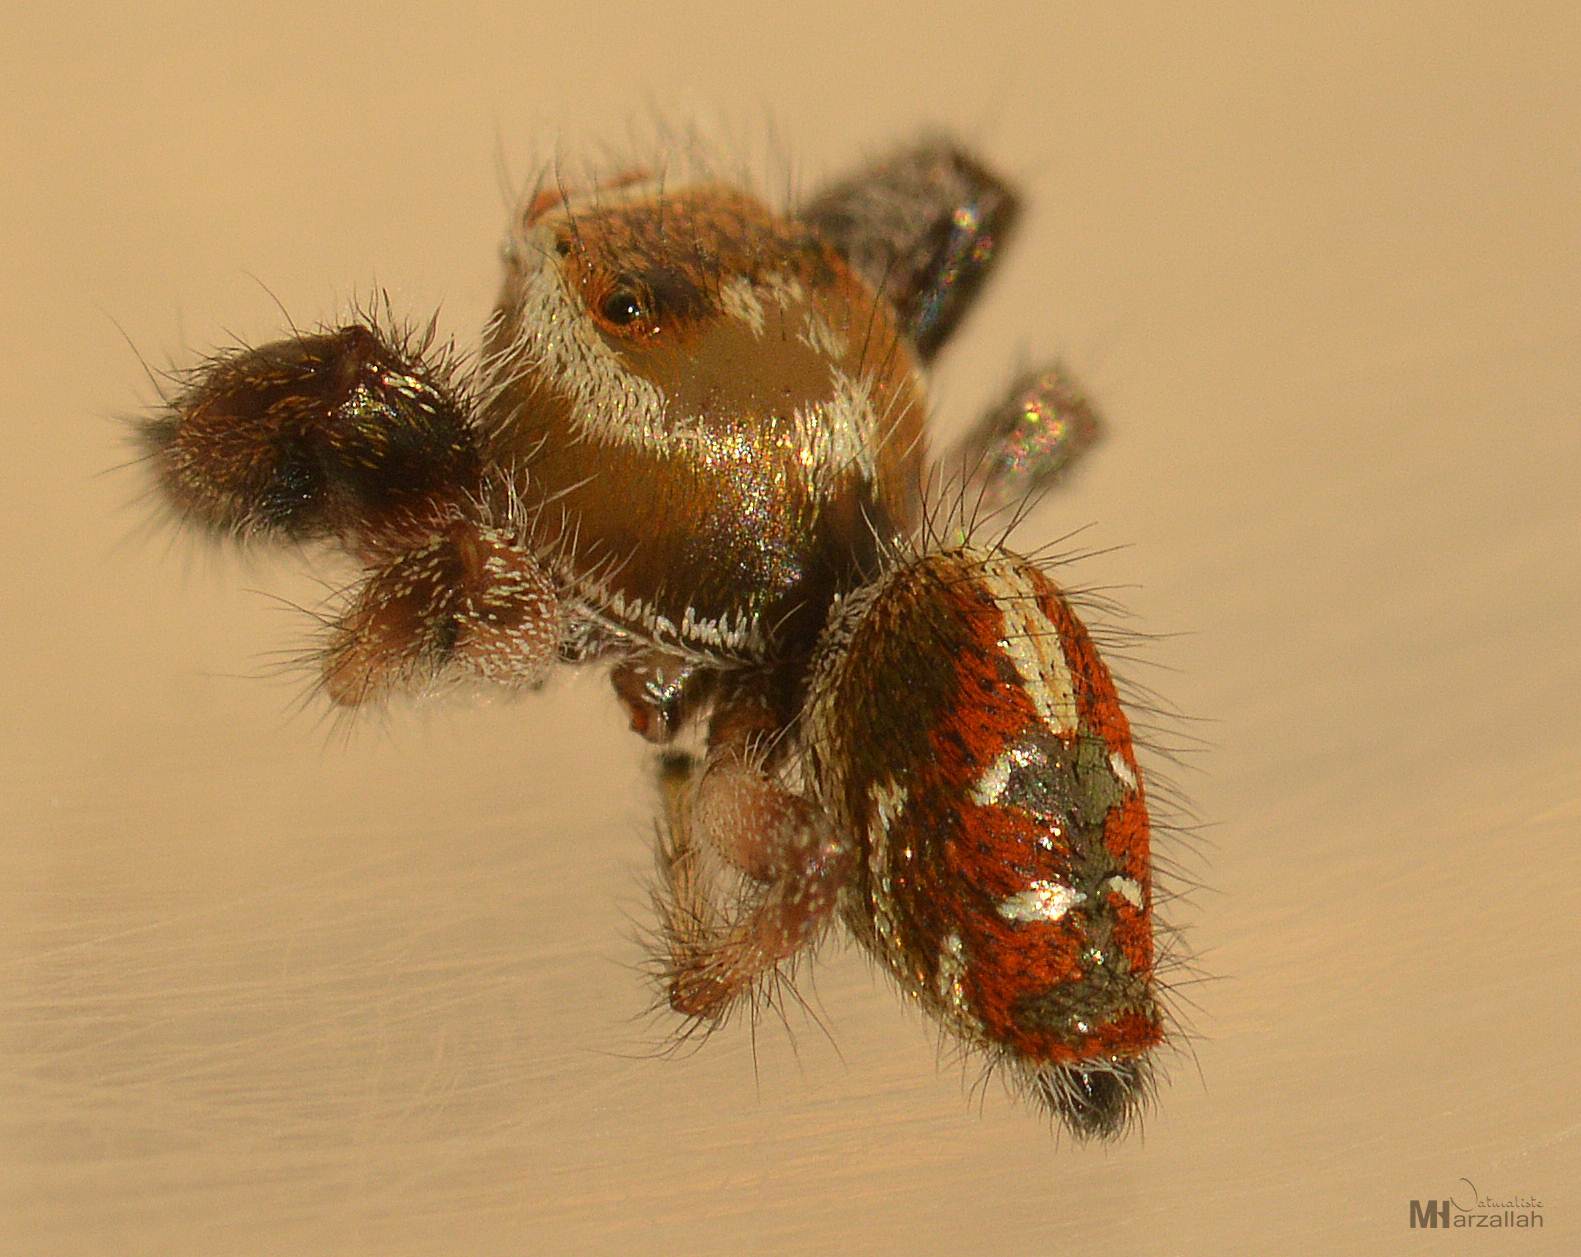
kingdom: Animalia
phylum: Arthropoda
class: Arachnida
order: Araneae
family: Salticidae
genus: Thyene
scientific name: Thyene imperialis
